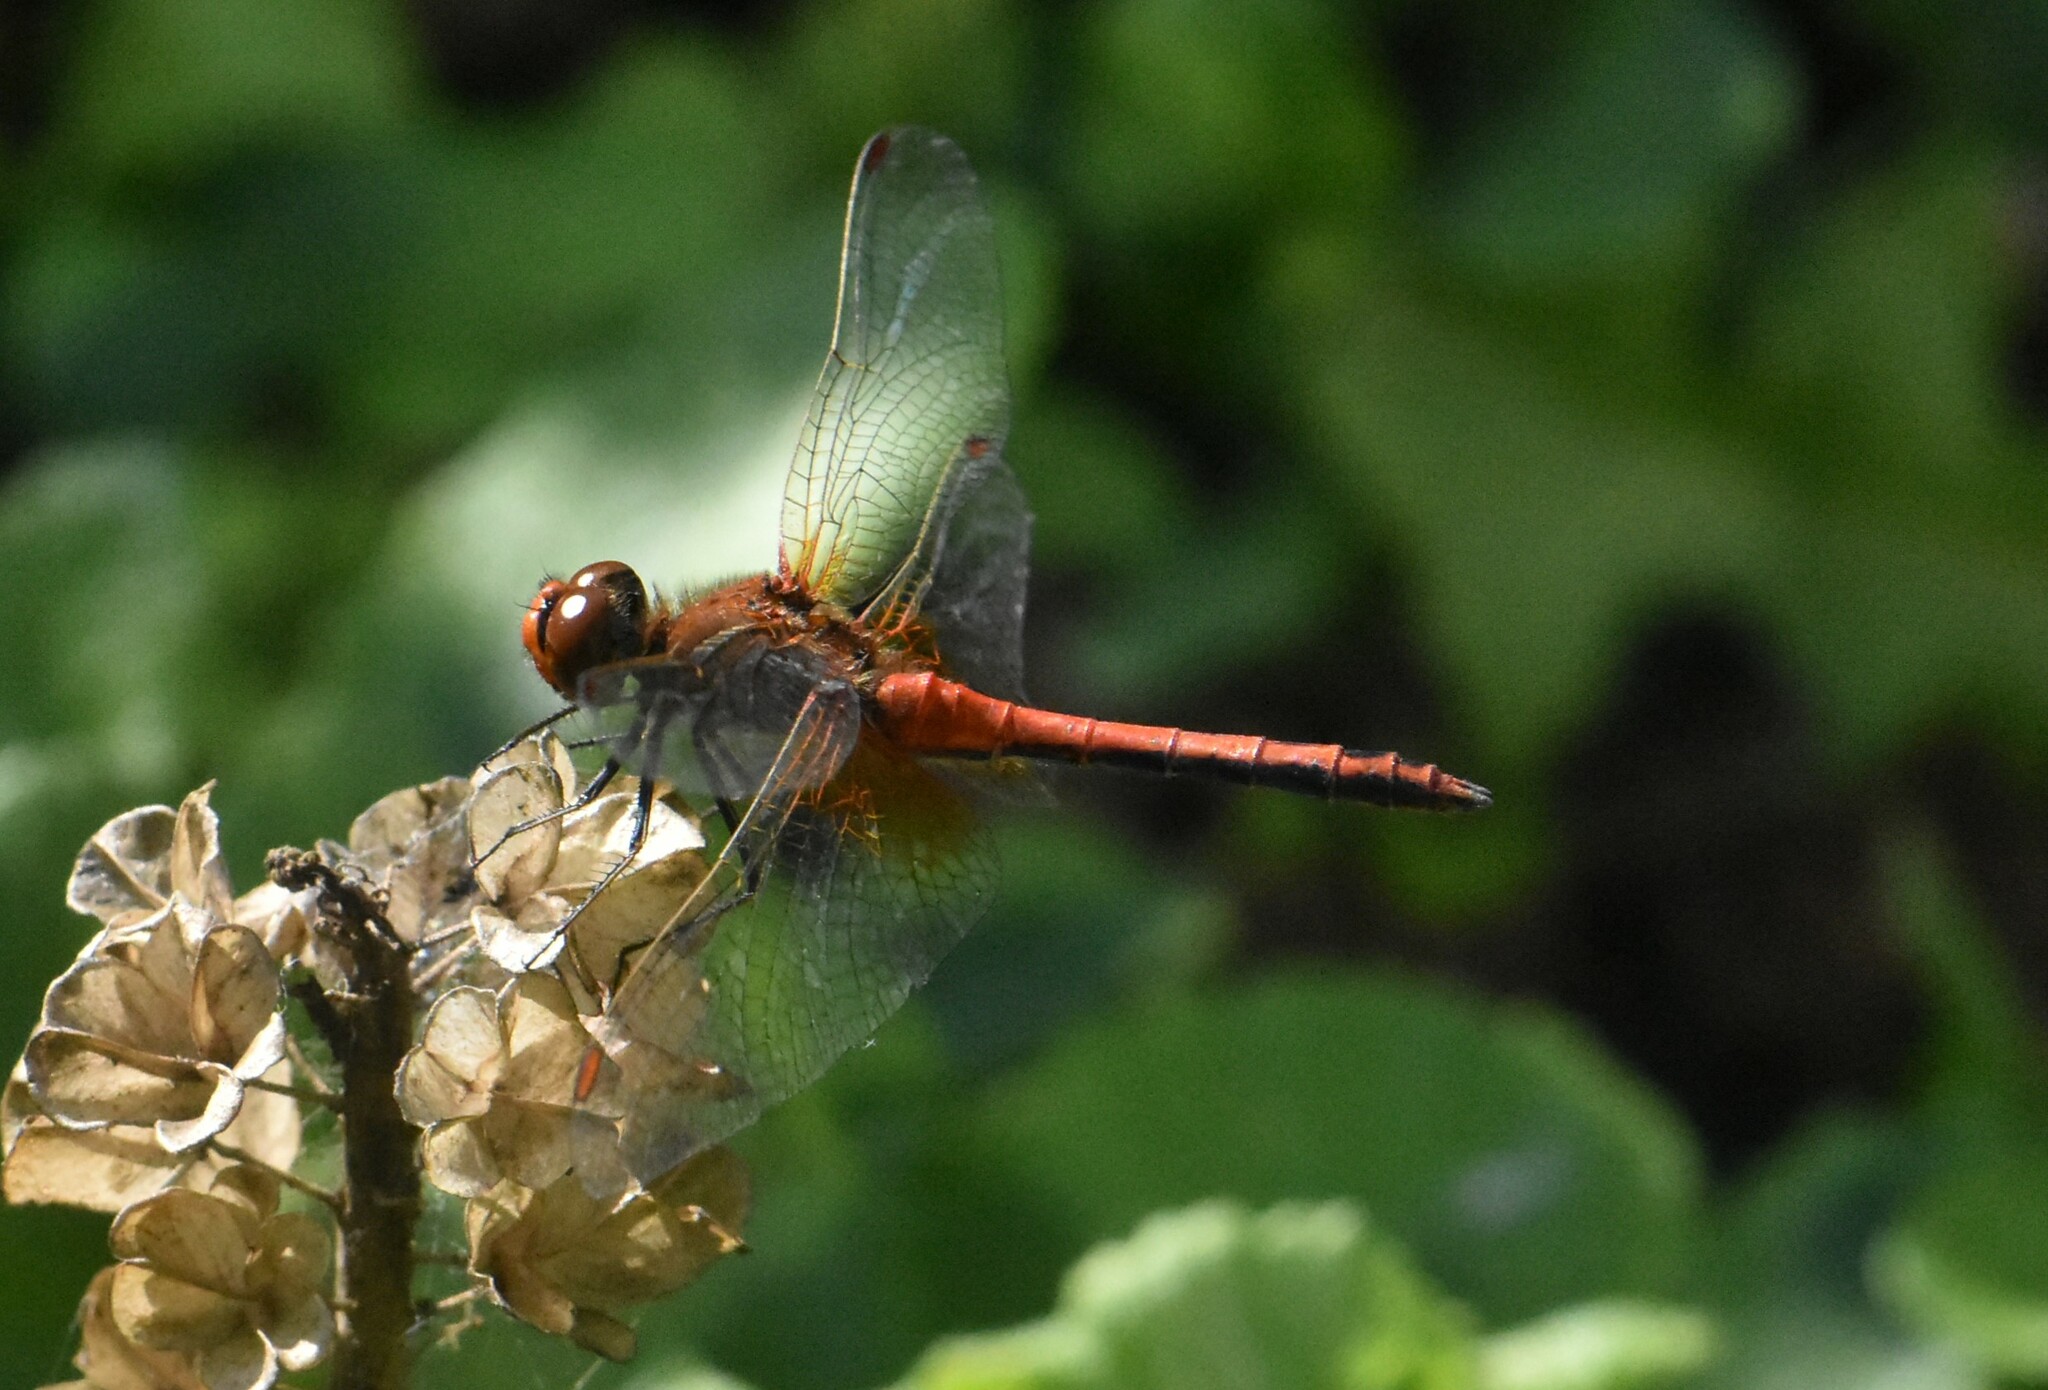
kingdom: Animalia
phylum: Arthropoda
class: Insecta
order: Odonata
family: Libellulidae
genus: Sympetrum
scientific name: Sympetrum flaveolum
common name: Yellow-winged darter
